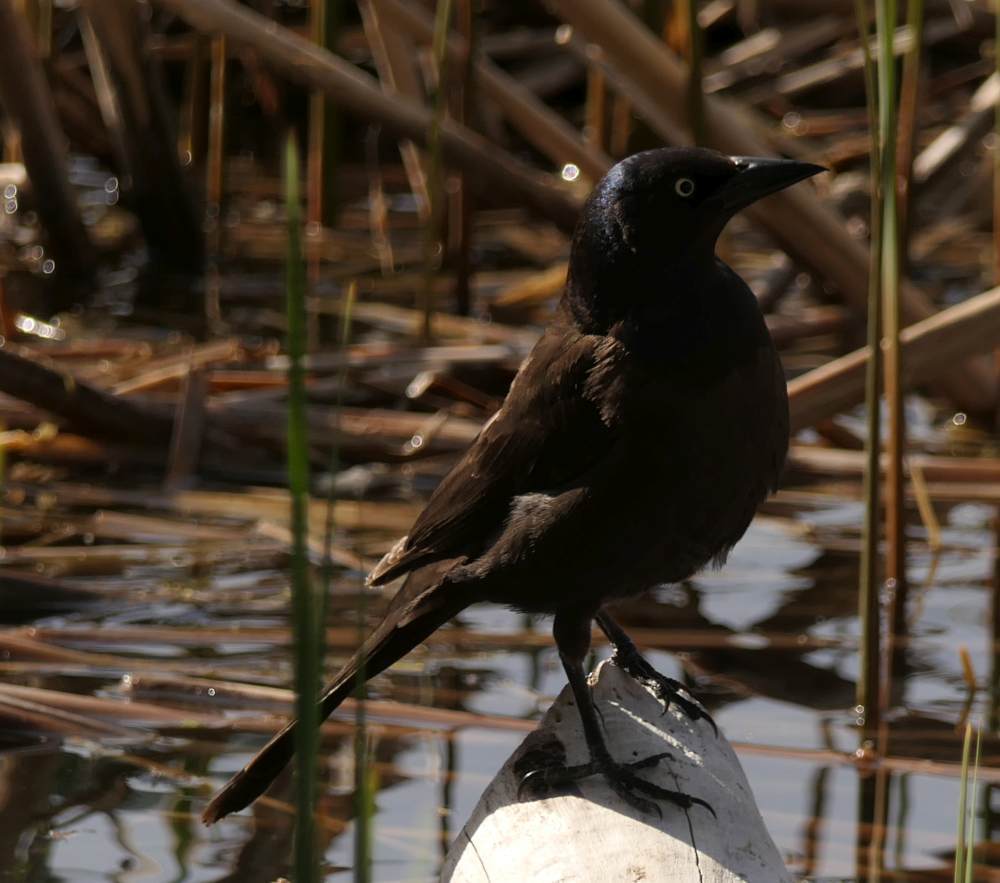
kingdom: Animalia
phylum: Chordata
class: Aves
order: Passeriformes
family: Icteridae
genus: Quiscalus
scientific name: Quiscalus quiscula
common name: Common grackle
